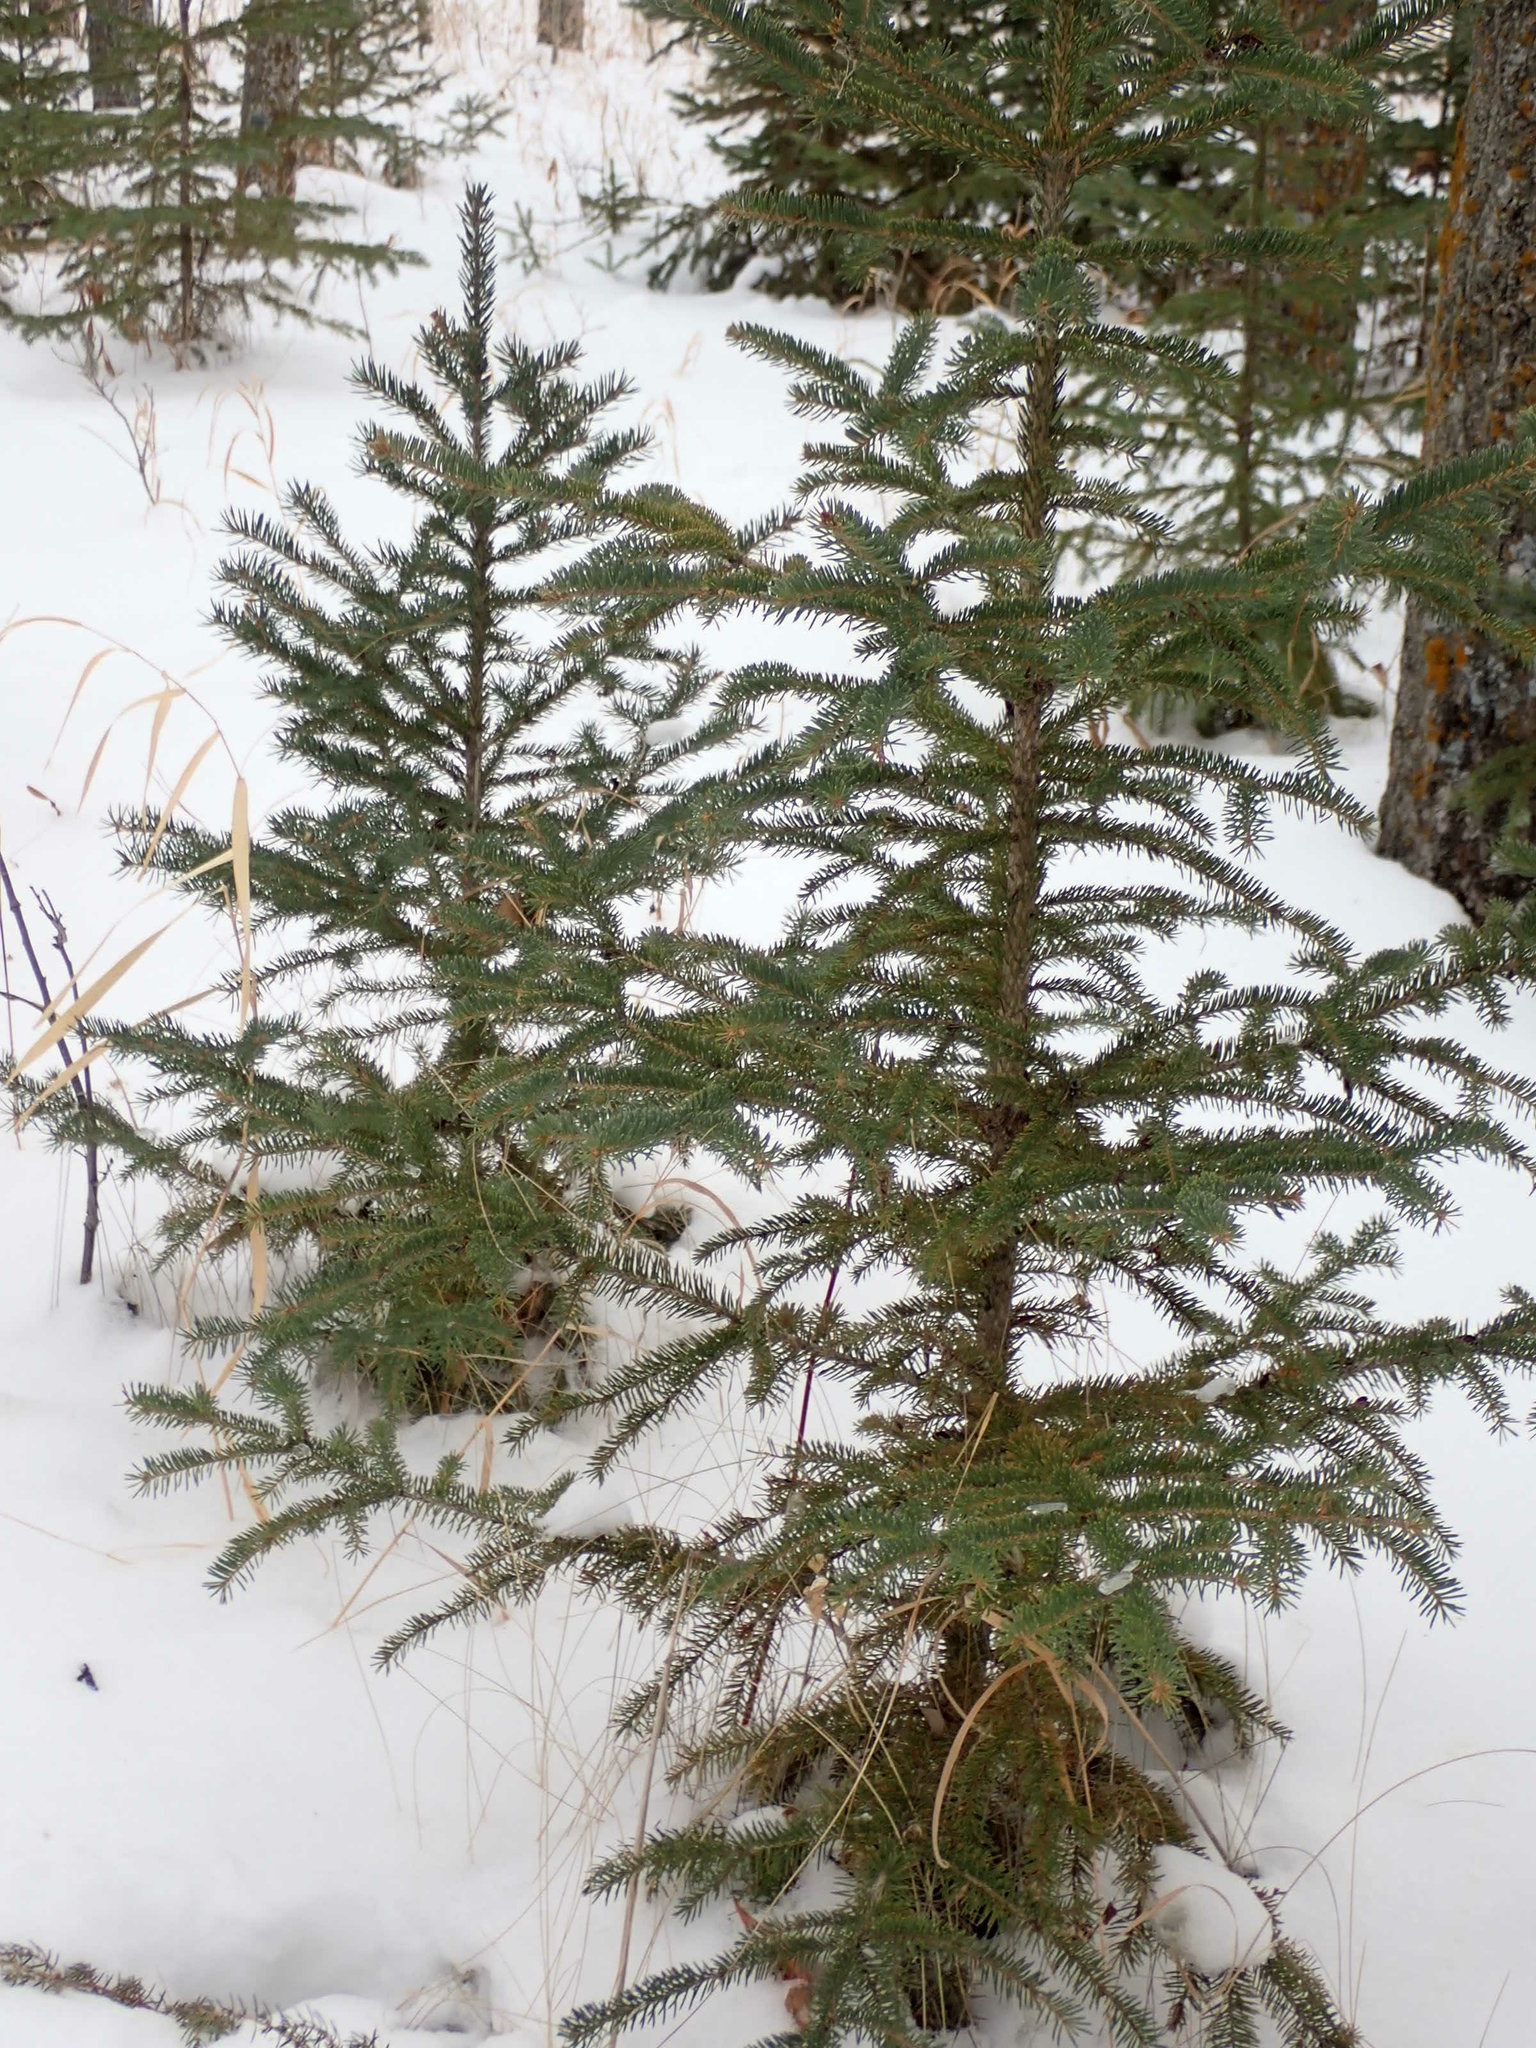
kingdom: Plantae
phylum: Tracheophyta
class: Pinopsida
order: Pinales
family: Pinaceae
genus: Picea
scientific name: Picea glauca
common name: White spruce
